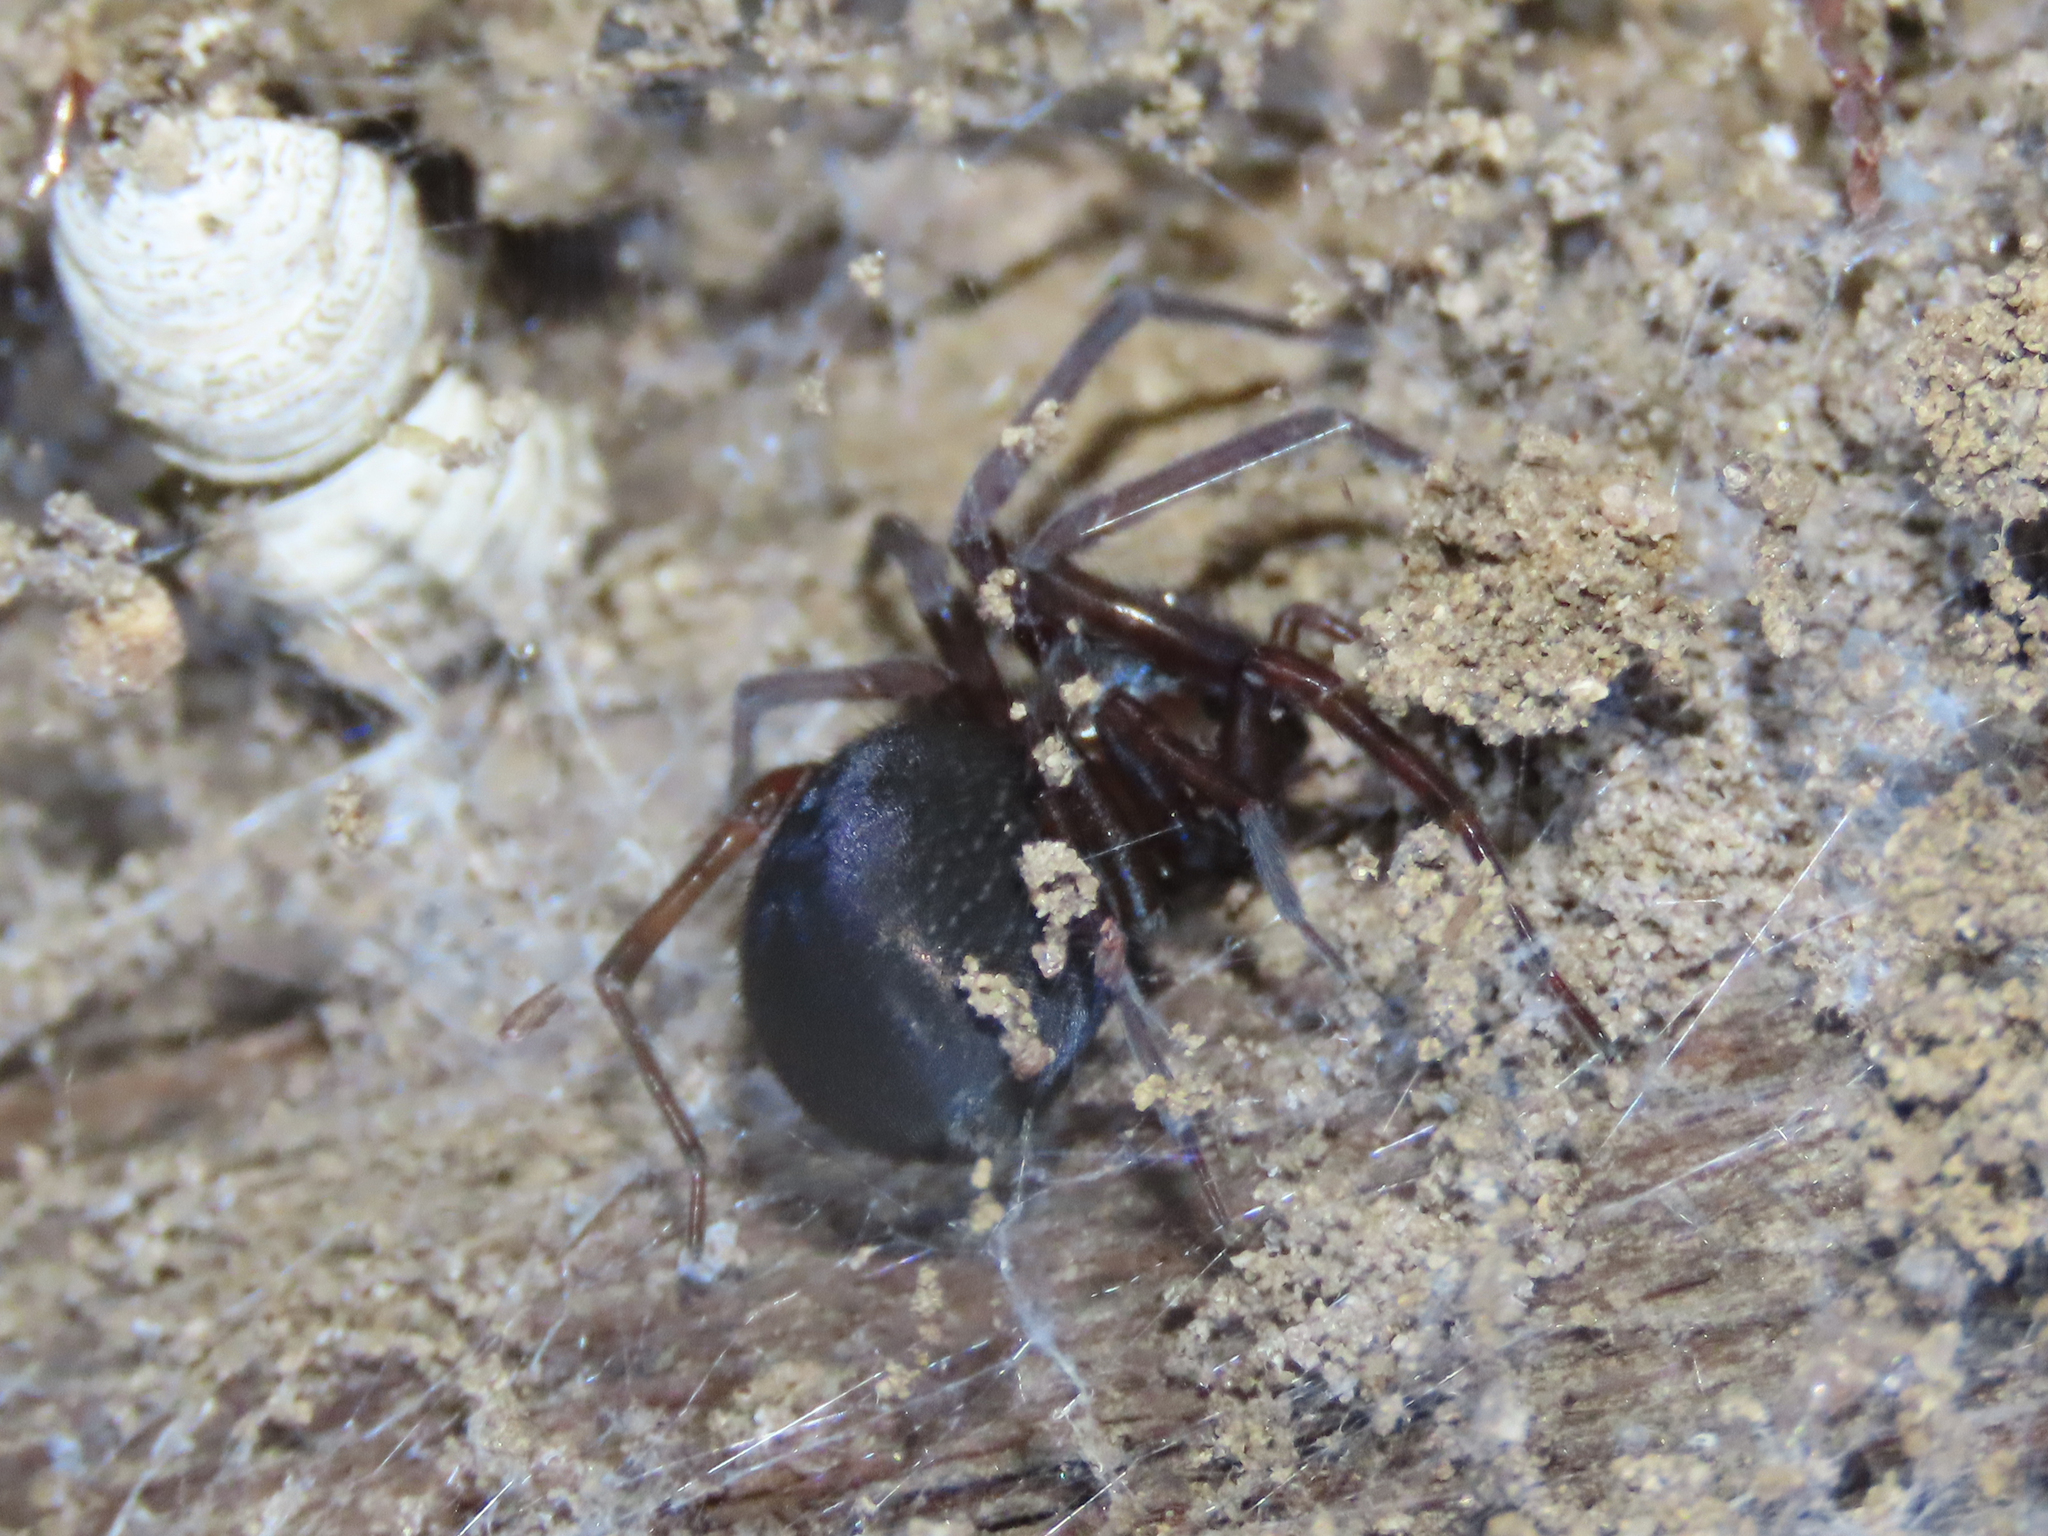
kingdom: Animalia
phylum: Arthropoda
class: Arachnida
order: Araneae
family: Theridiidae
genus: Steatoda
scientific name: Steatoda grossa
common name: False black widow
